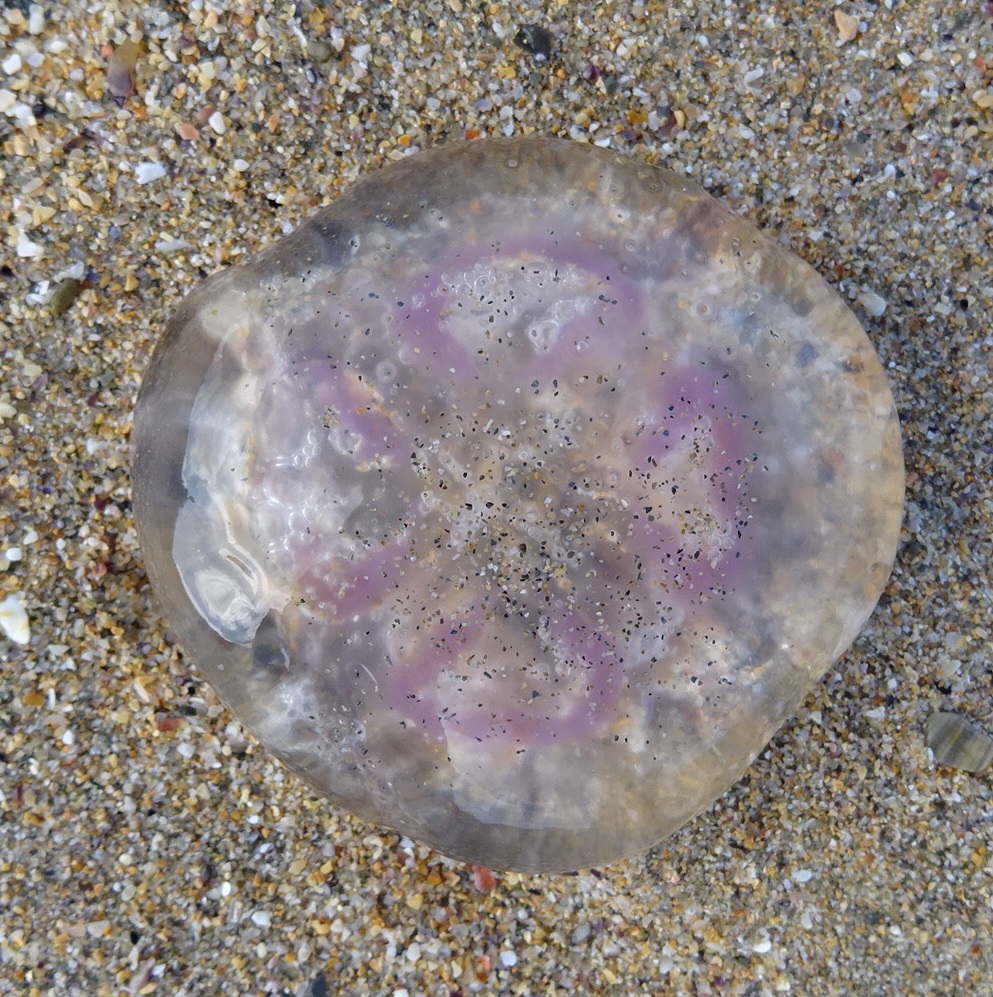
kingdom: Animalia
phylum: Cnidaria
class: Scyphozoa
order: Semaeostomeae
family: Ulmaridae
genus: Aurelia
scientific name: Aurelia aurita
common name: Moon jellyfish
